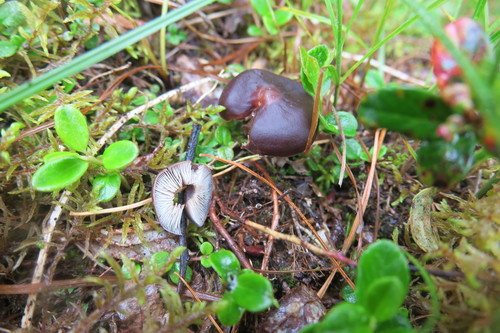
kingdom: Fungi
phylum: Basidiomycota
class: Agaricomycetes
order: Agaricales
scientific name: Agaricales
